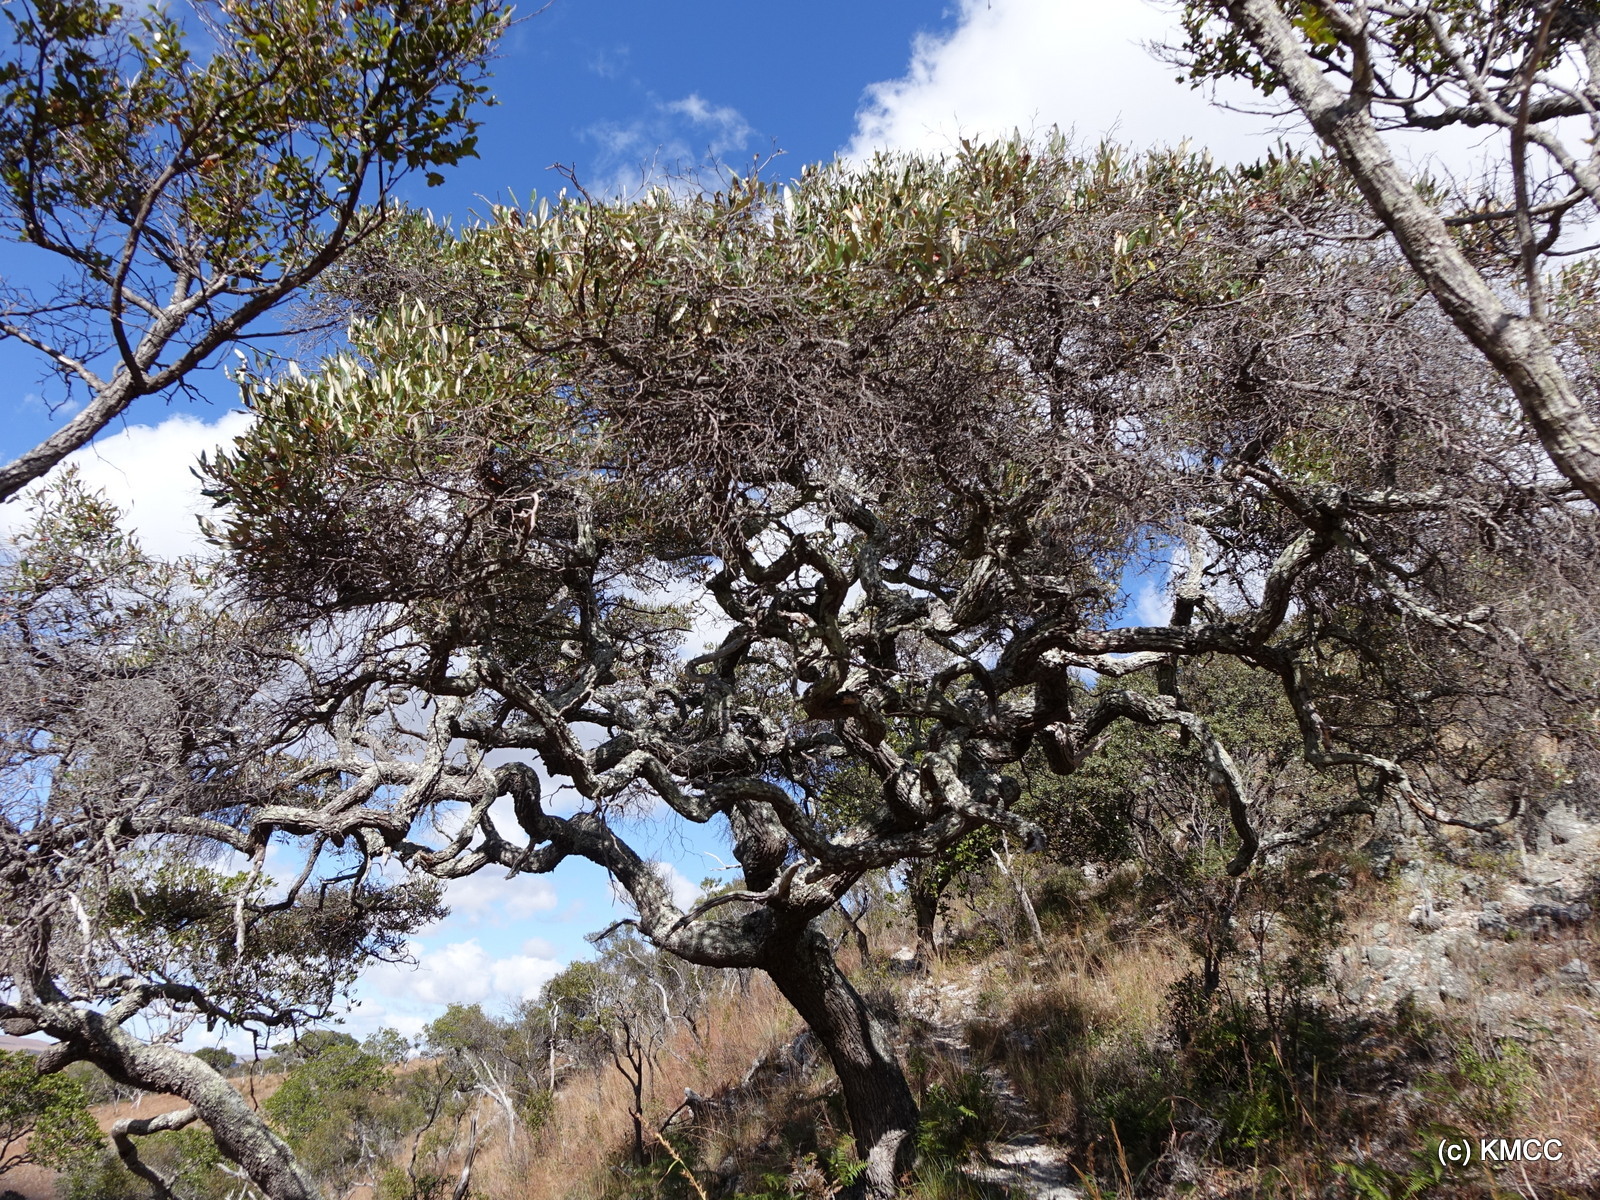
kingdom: Plantae
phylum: Tracheophyta
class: Magnoliopsida
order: Malvales
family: Sarcolaenaceae
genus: Sarcolaena
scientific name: Sarcolaena oblongifolia
